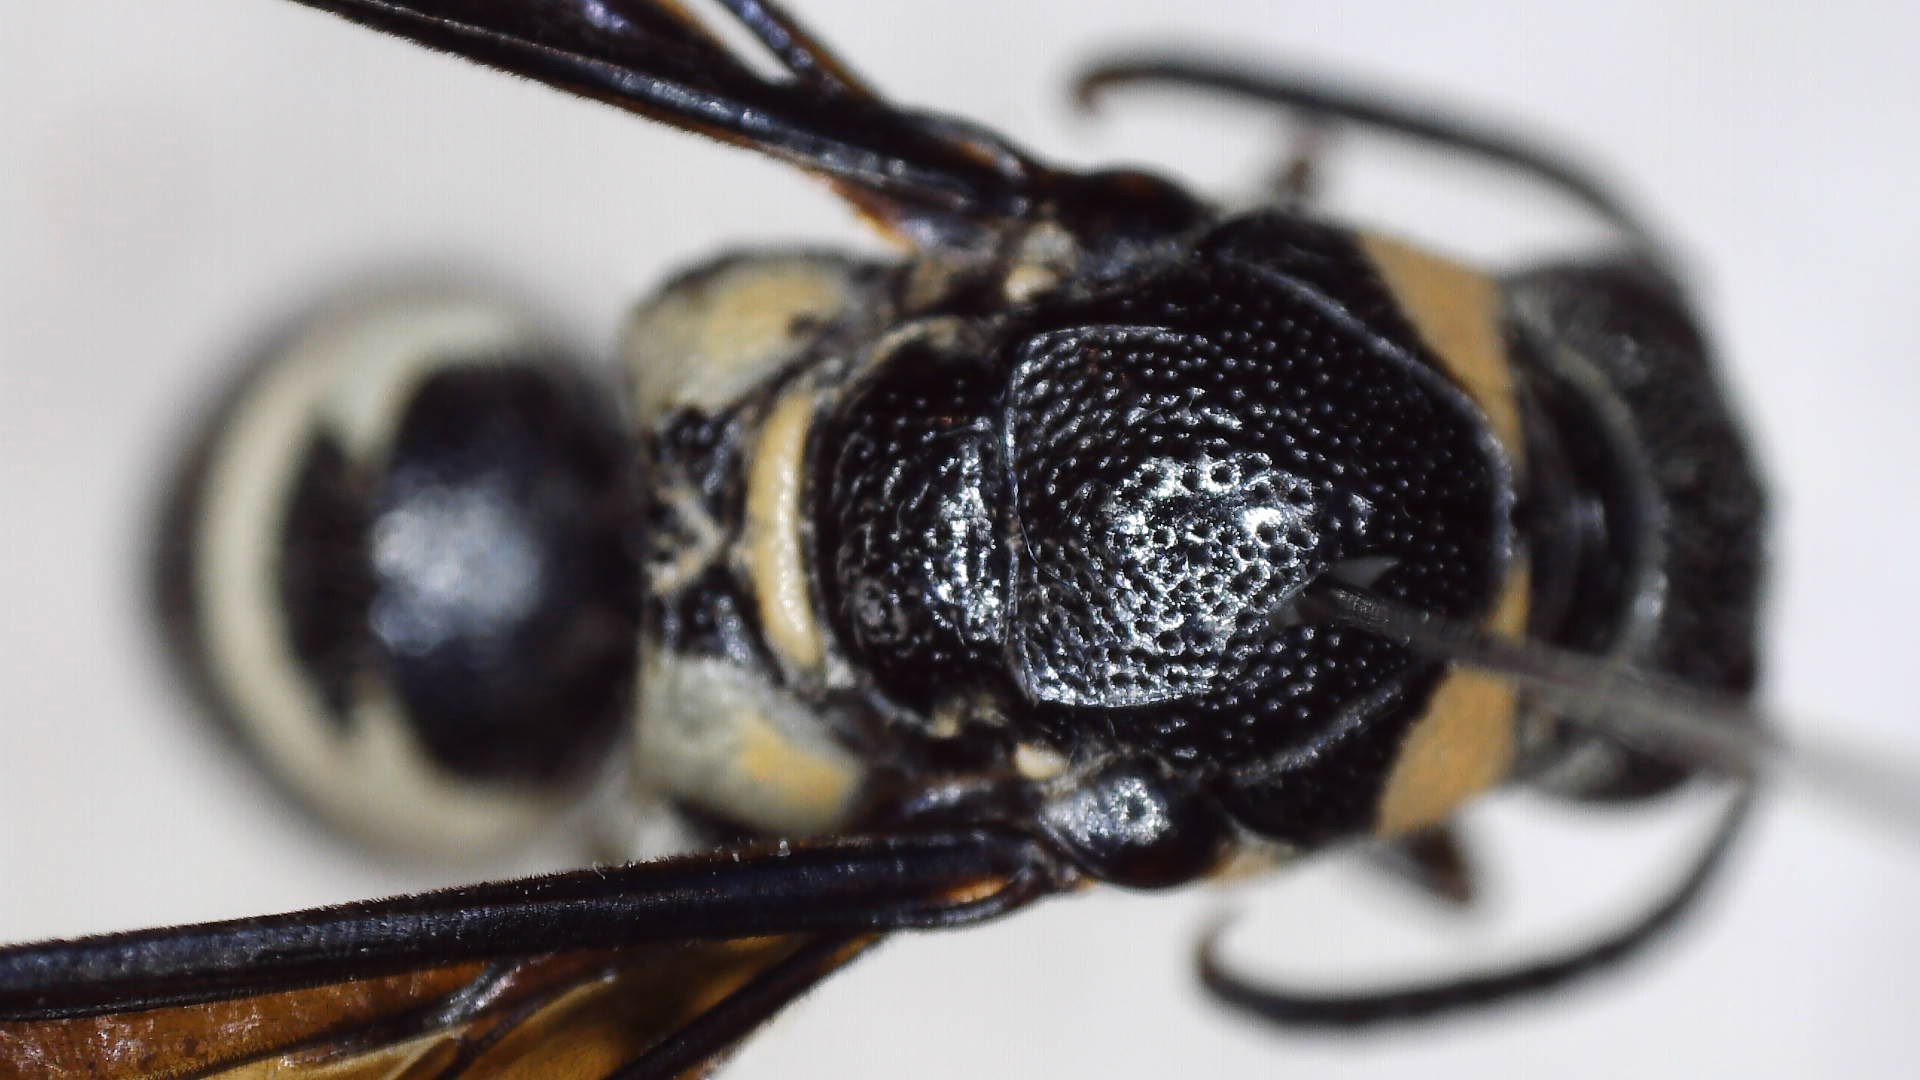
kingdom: Animalia
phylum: Arthropoda
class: Insecta
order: Hymenoptera
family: Eumenidae
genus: Pseudodynerus
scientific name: Pseudodynerus quadrisectus
